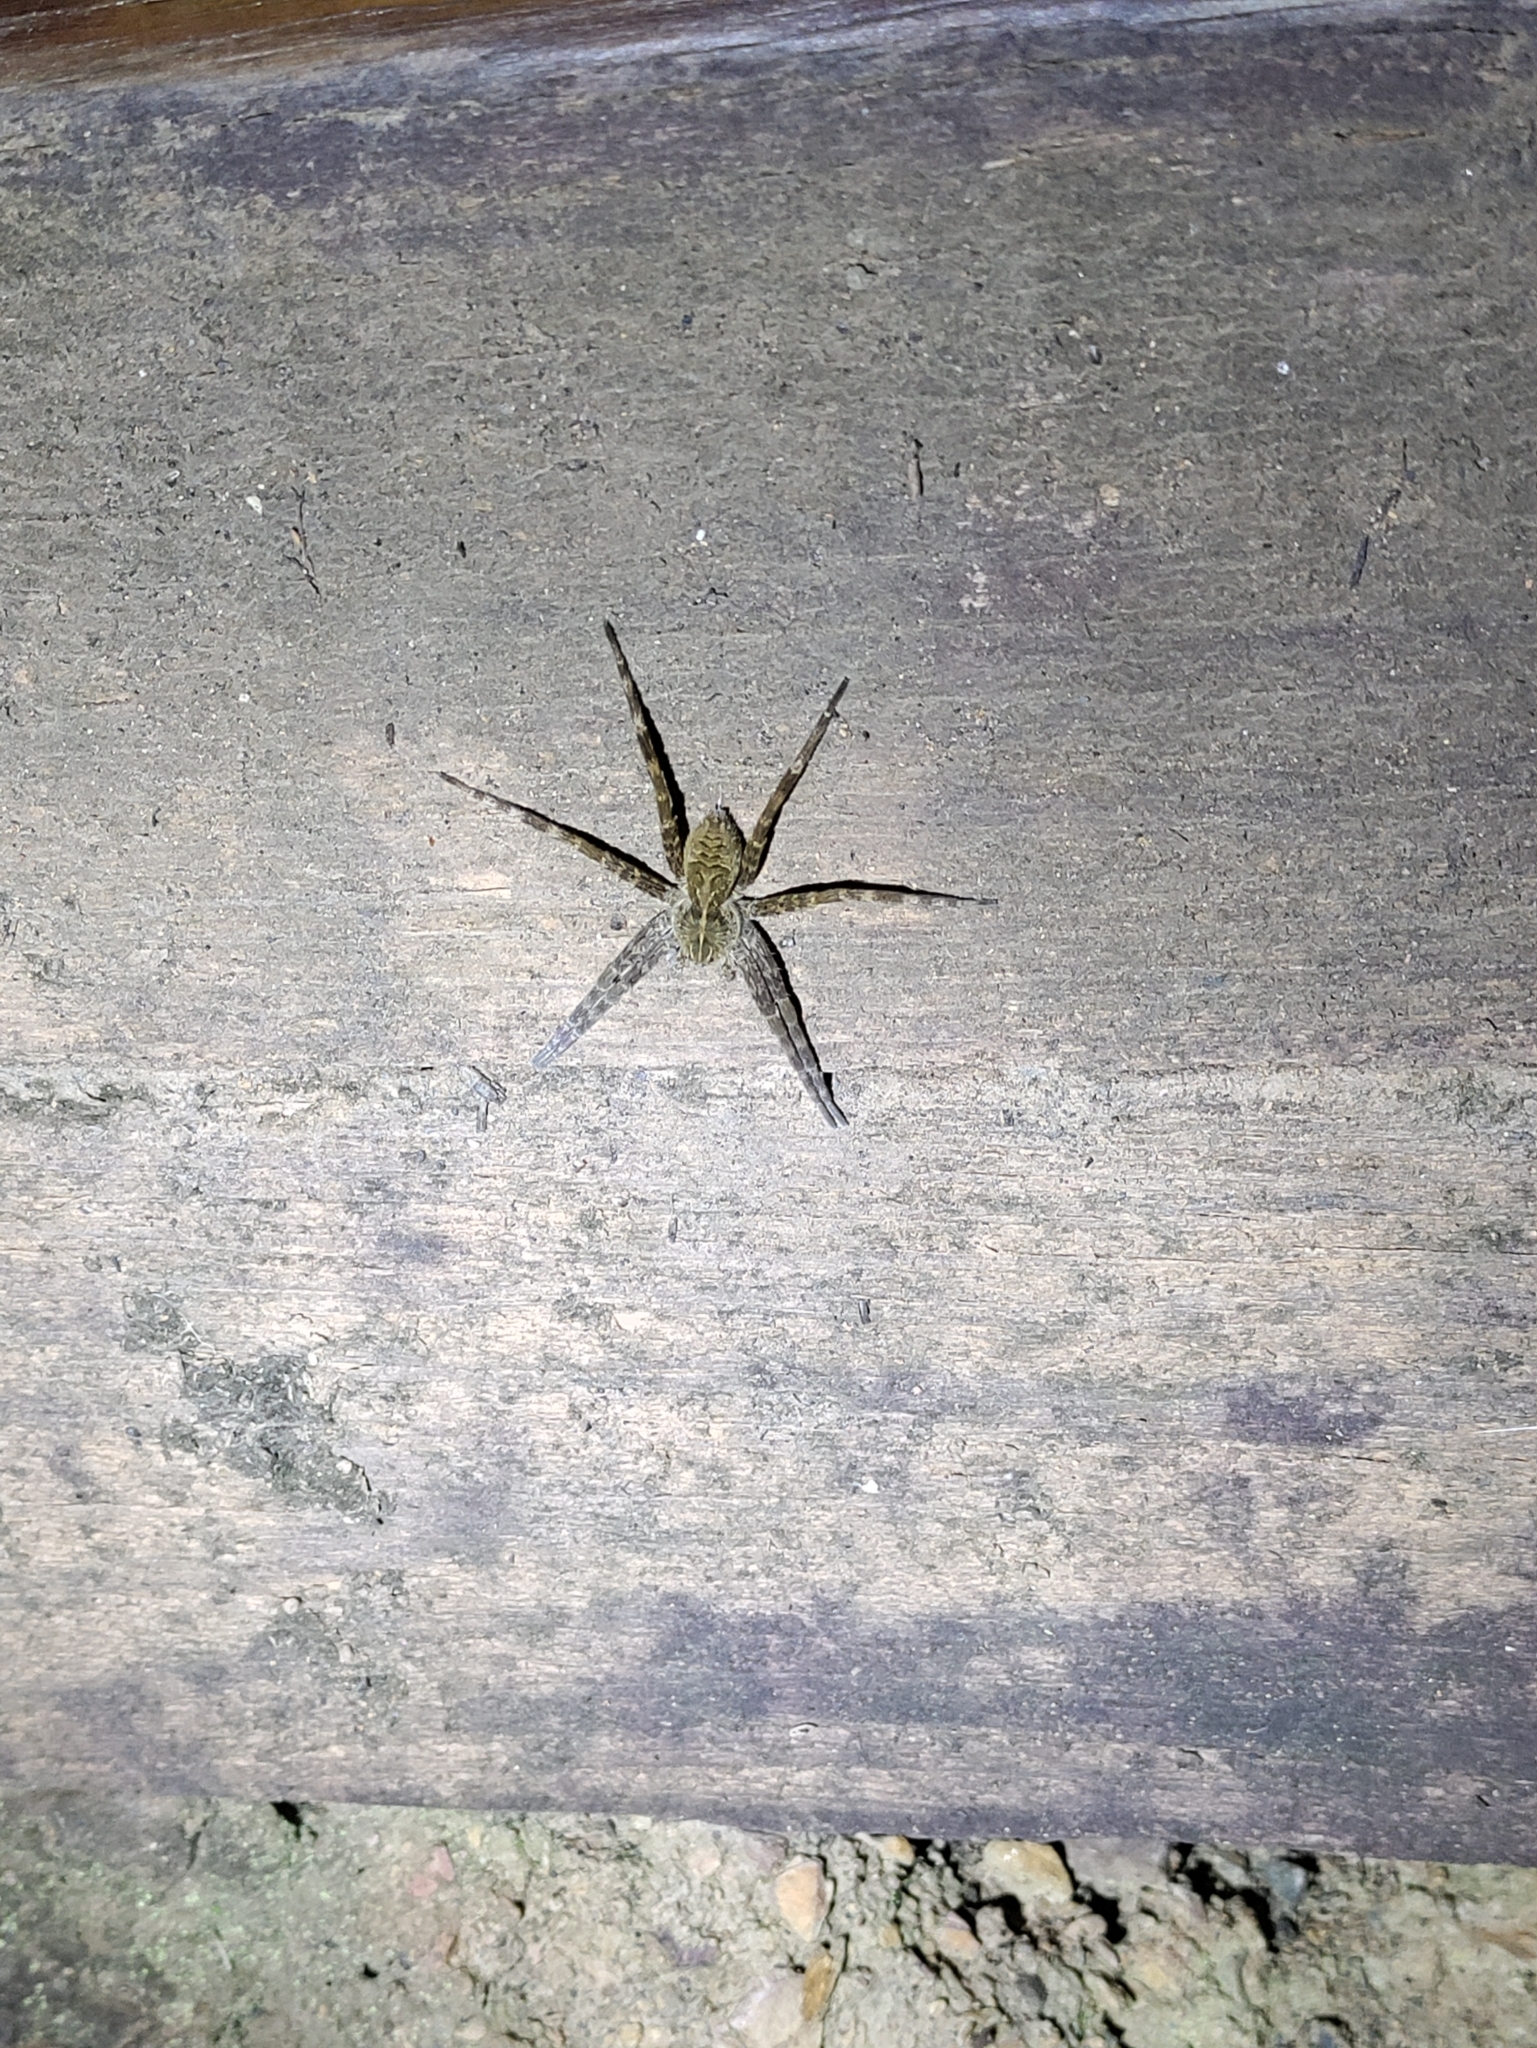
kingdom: Animalia
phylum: Arthropoda
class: Arachnida
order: Araneae
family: Pisauridae
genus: Dolomedes
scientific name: Dolomedes scriptus
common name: Striped fishing spider
